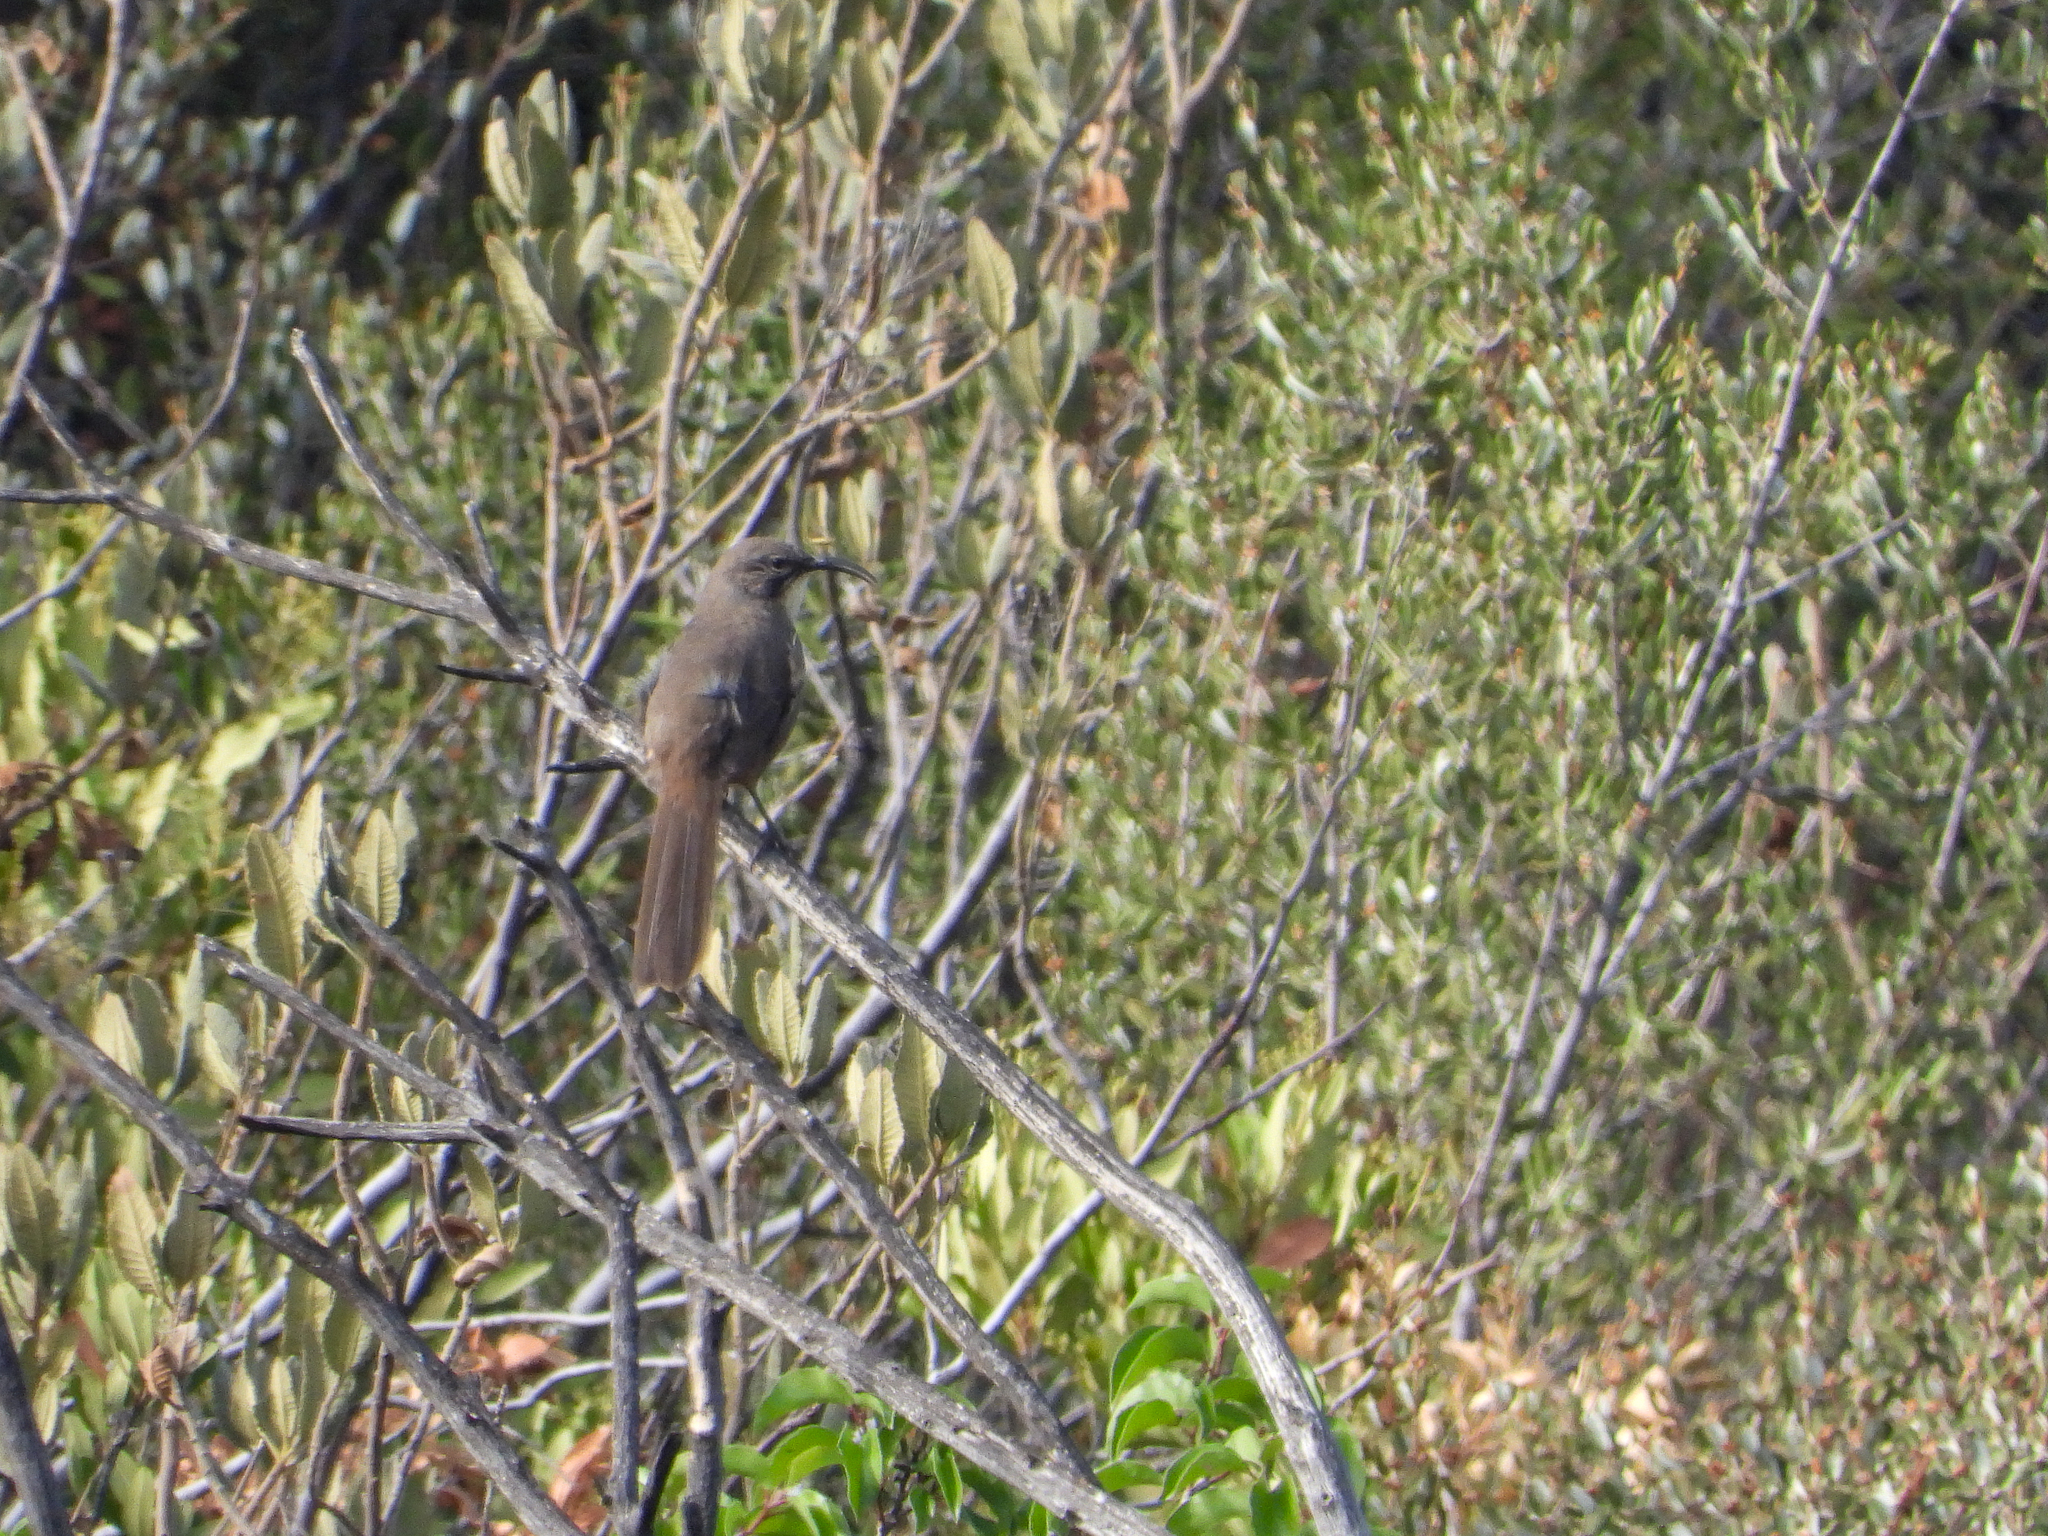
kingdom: Animalia
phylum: Chordata
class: Aves
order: Passeriformes
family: Mimidae
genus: Toxostoma
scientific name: Toxostoma redivivum
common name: California thrasher
